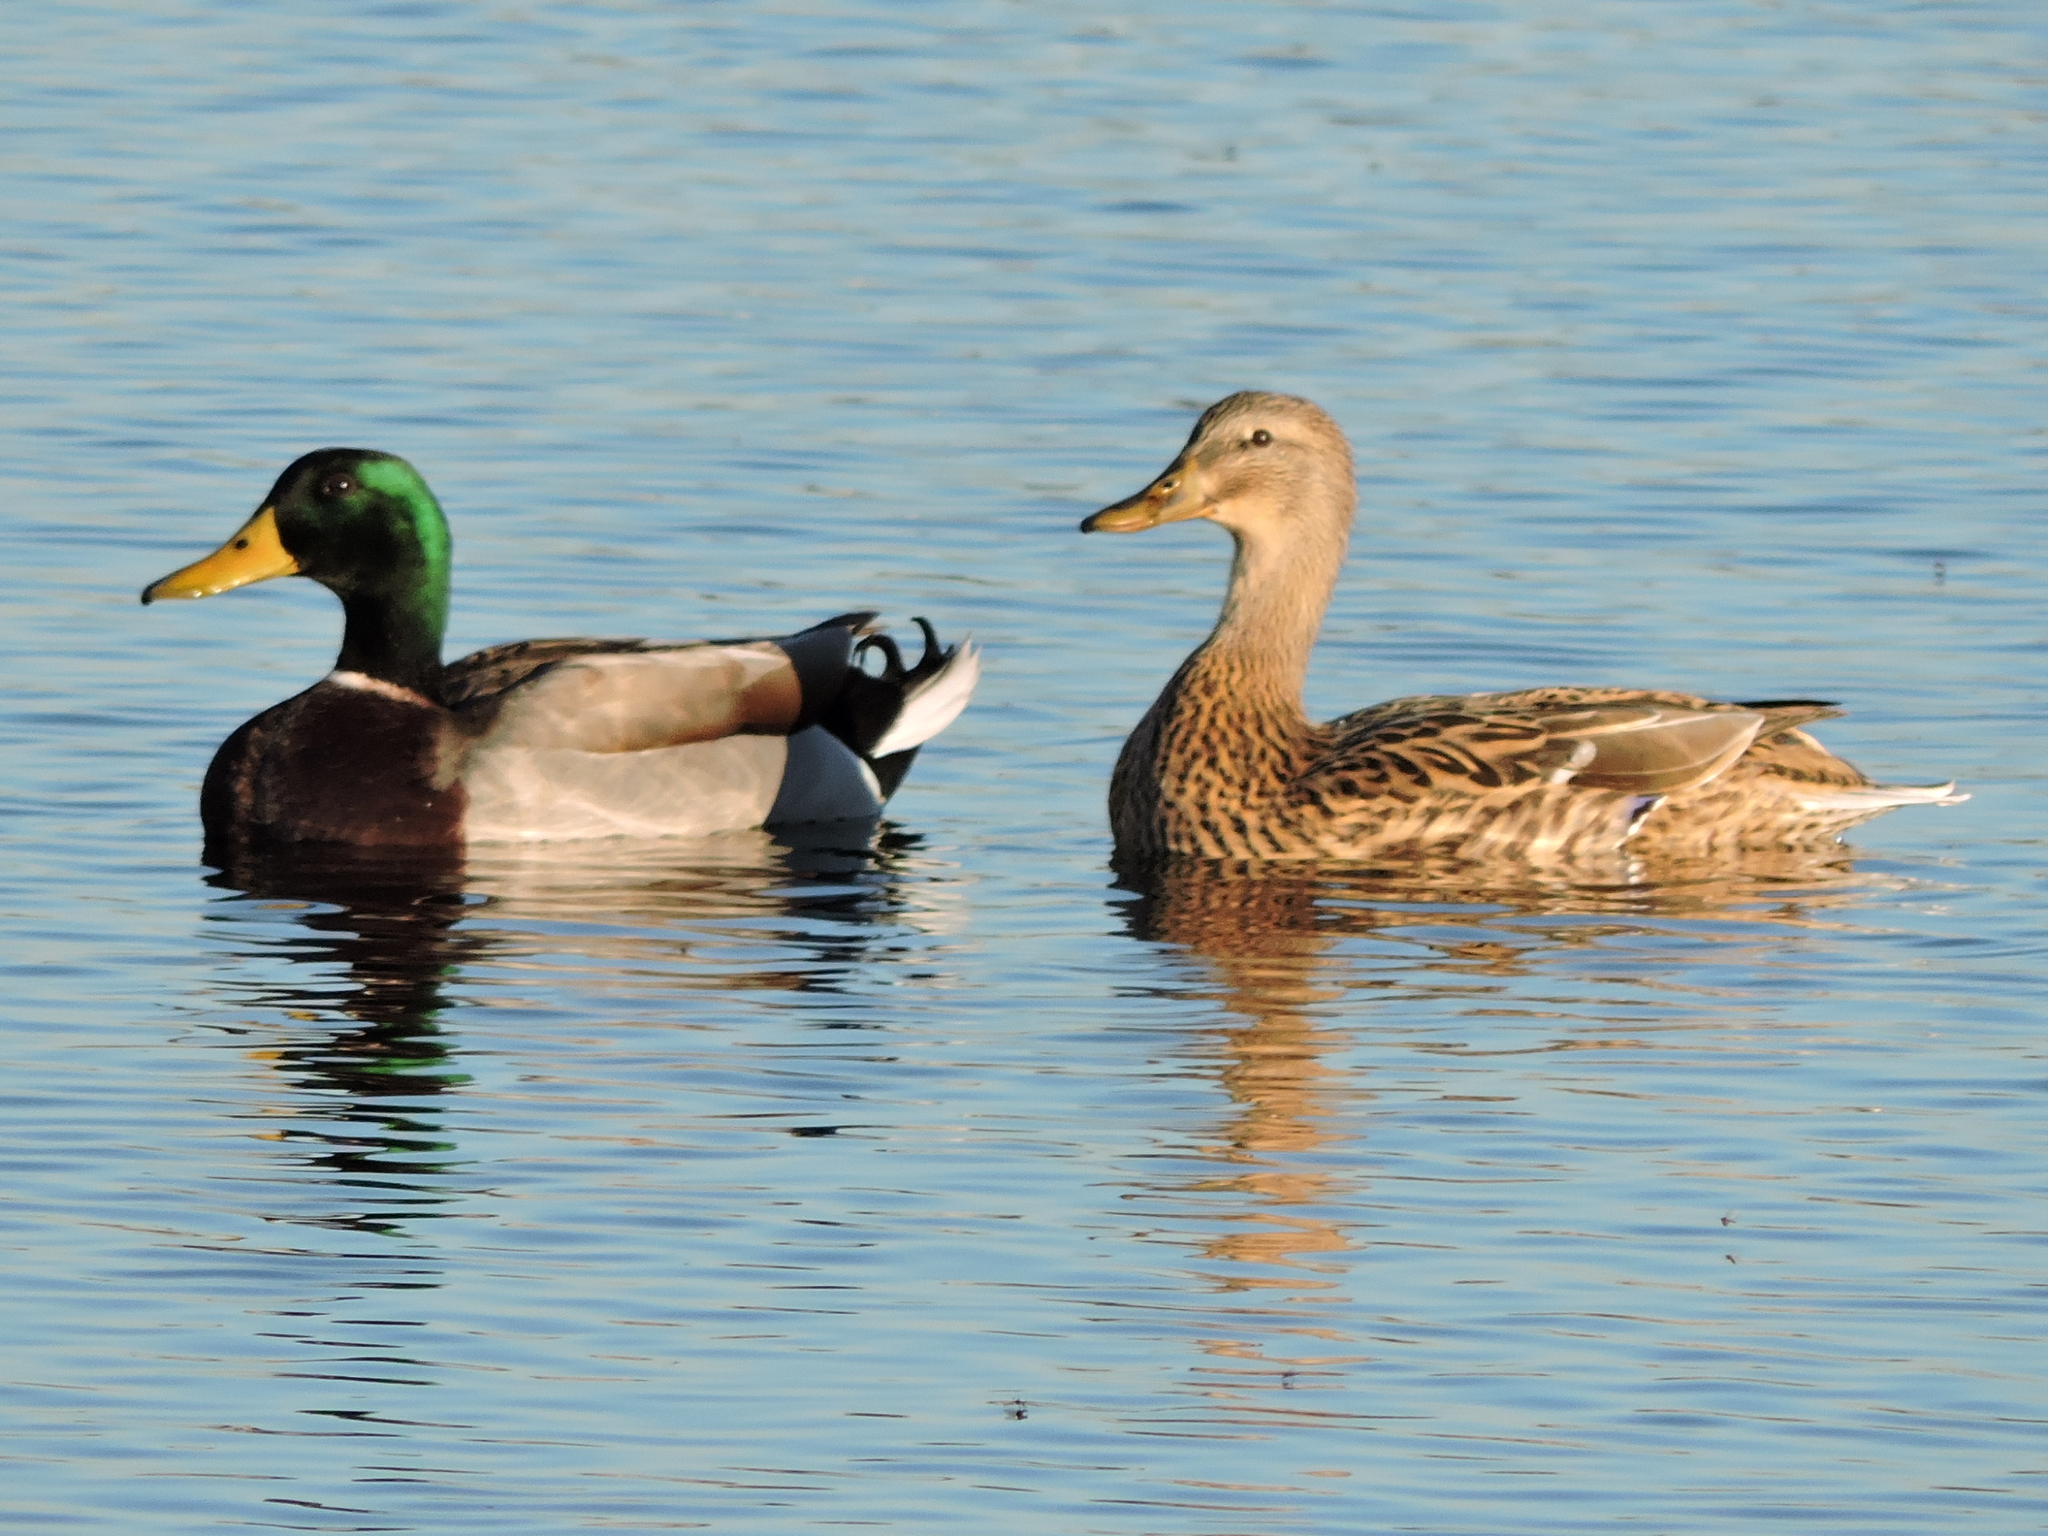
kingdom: Animalia
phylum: Chordata
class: Aves
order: Anseriformes
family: Anatidae
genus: Anas
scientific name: Anas platyrhynchos
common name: Mallard
